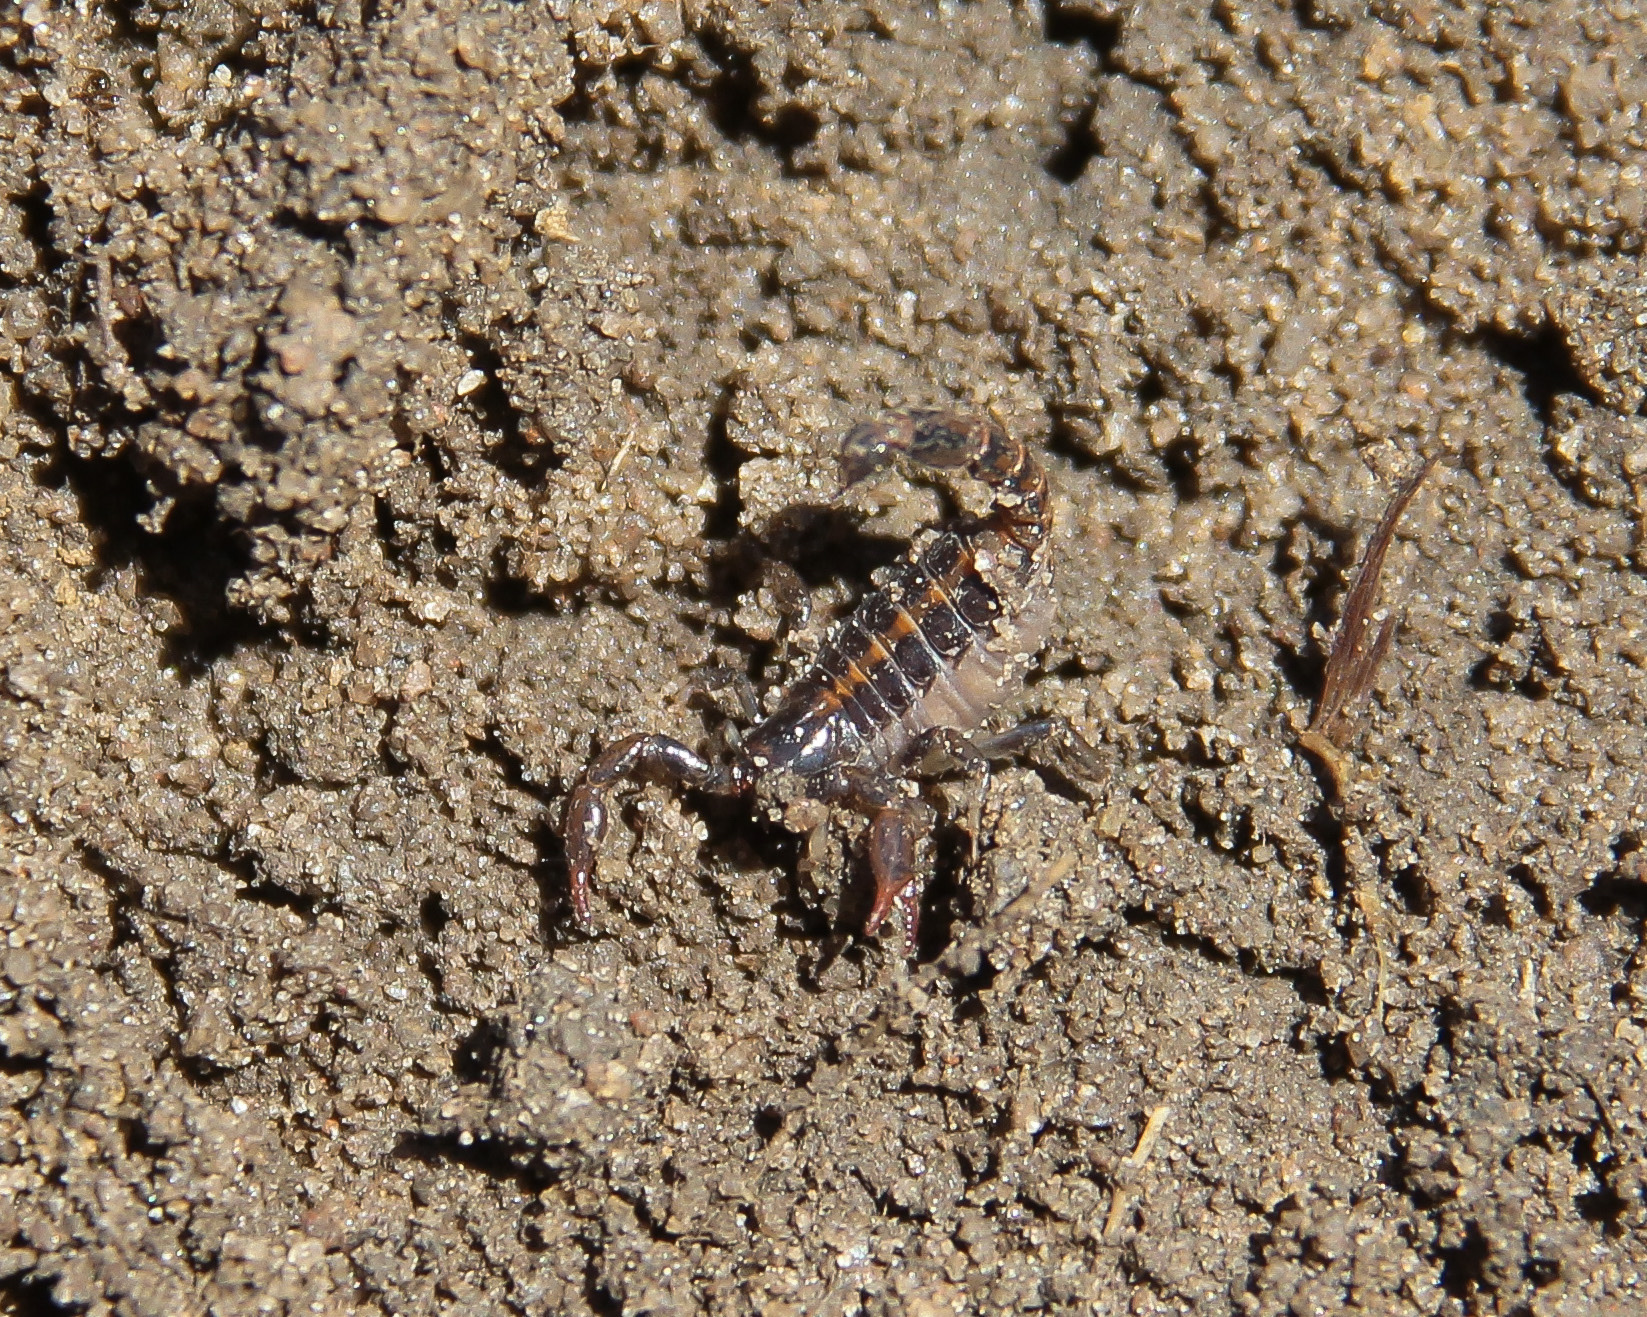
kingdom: Animalia
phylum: Arthropoda
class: Arachnida
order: Scorpiones
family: Bothriuridae
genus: Bothriurus
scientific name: Bothriurus asper
